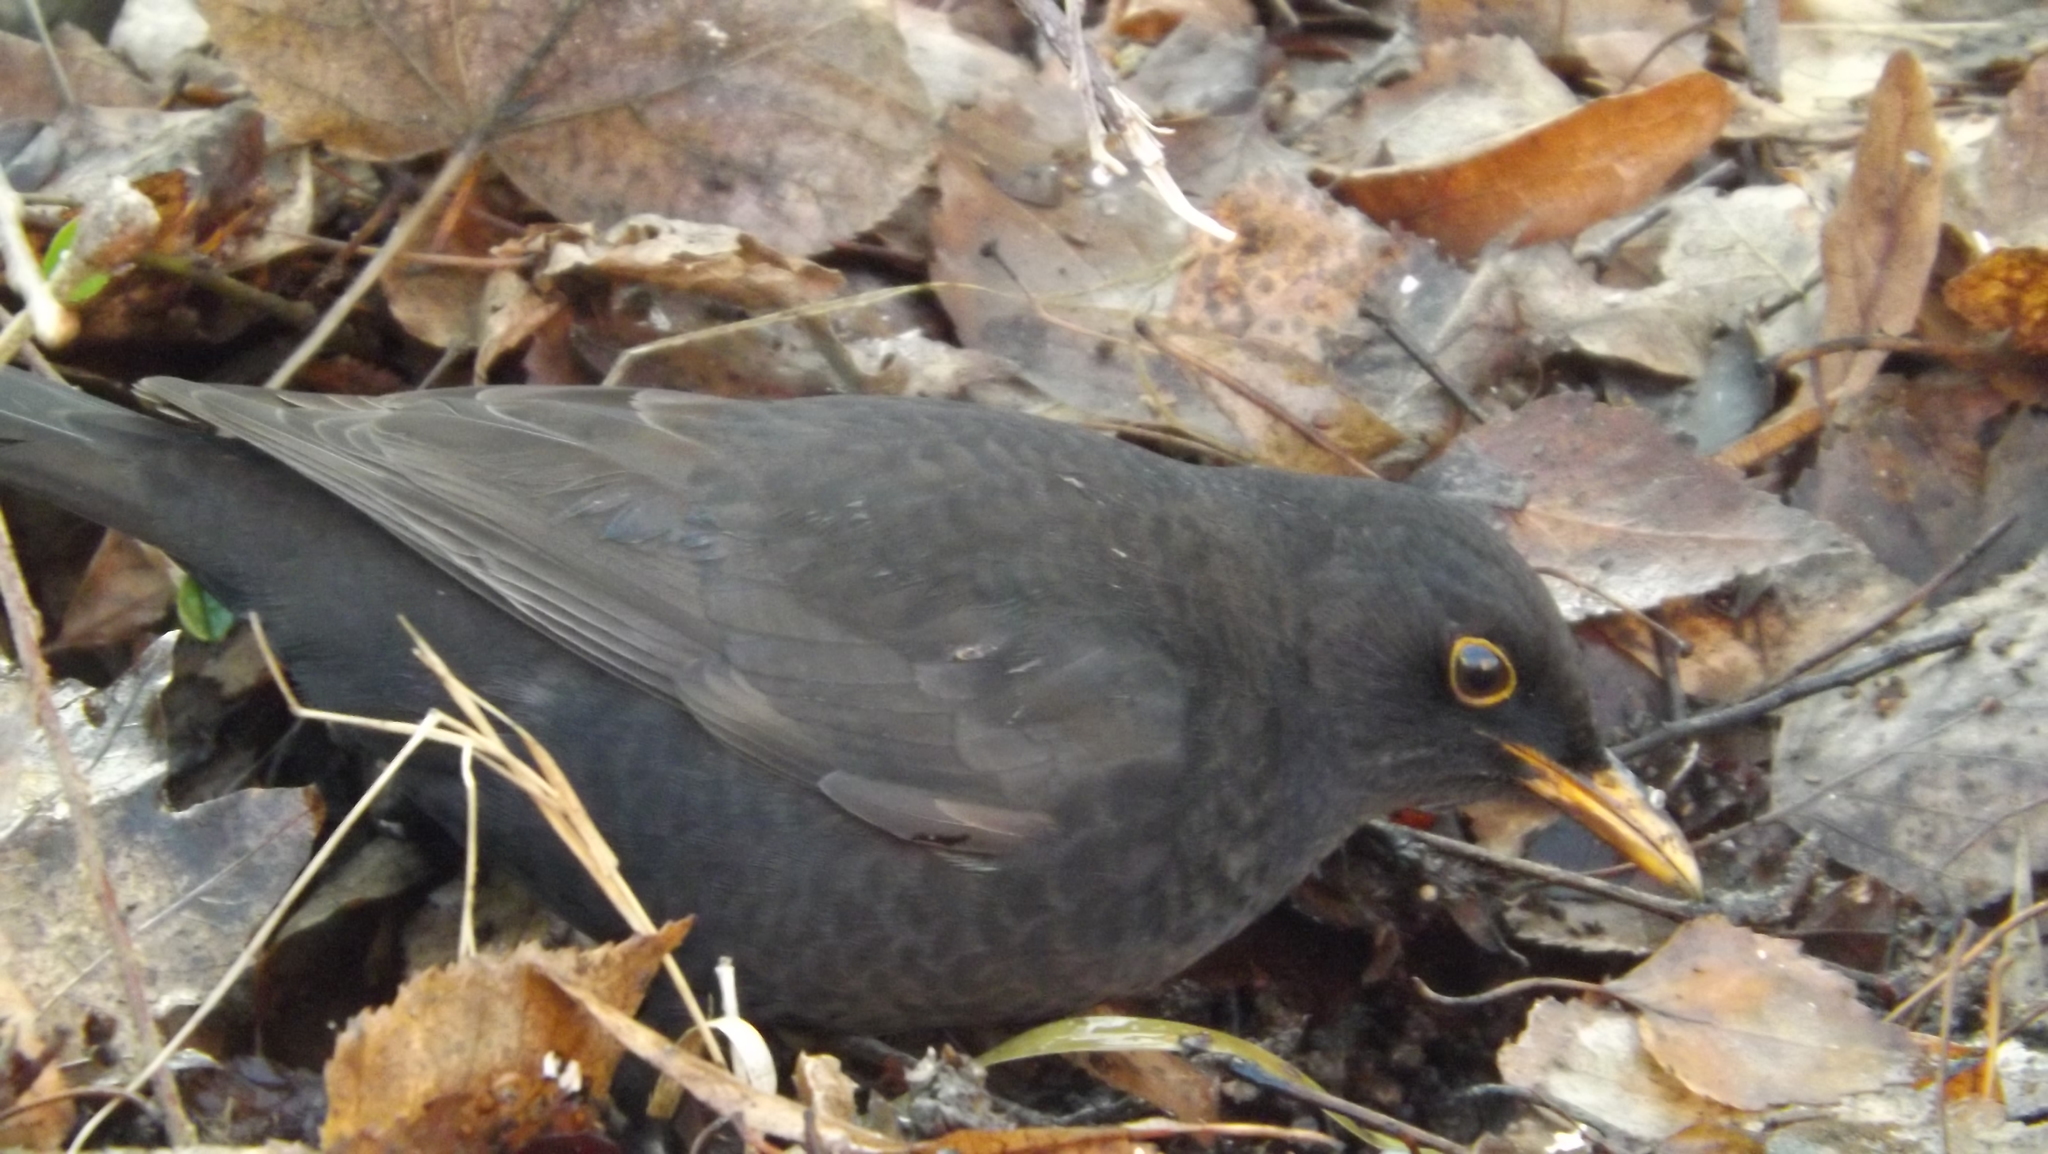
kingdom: Animalia
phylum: Chordata
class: Aves
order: Passeriformes
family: Turdidae
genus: Turdus
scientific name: Turdus merula
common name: Common blackbird
